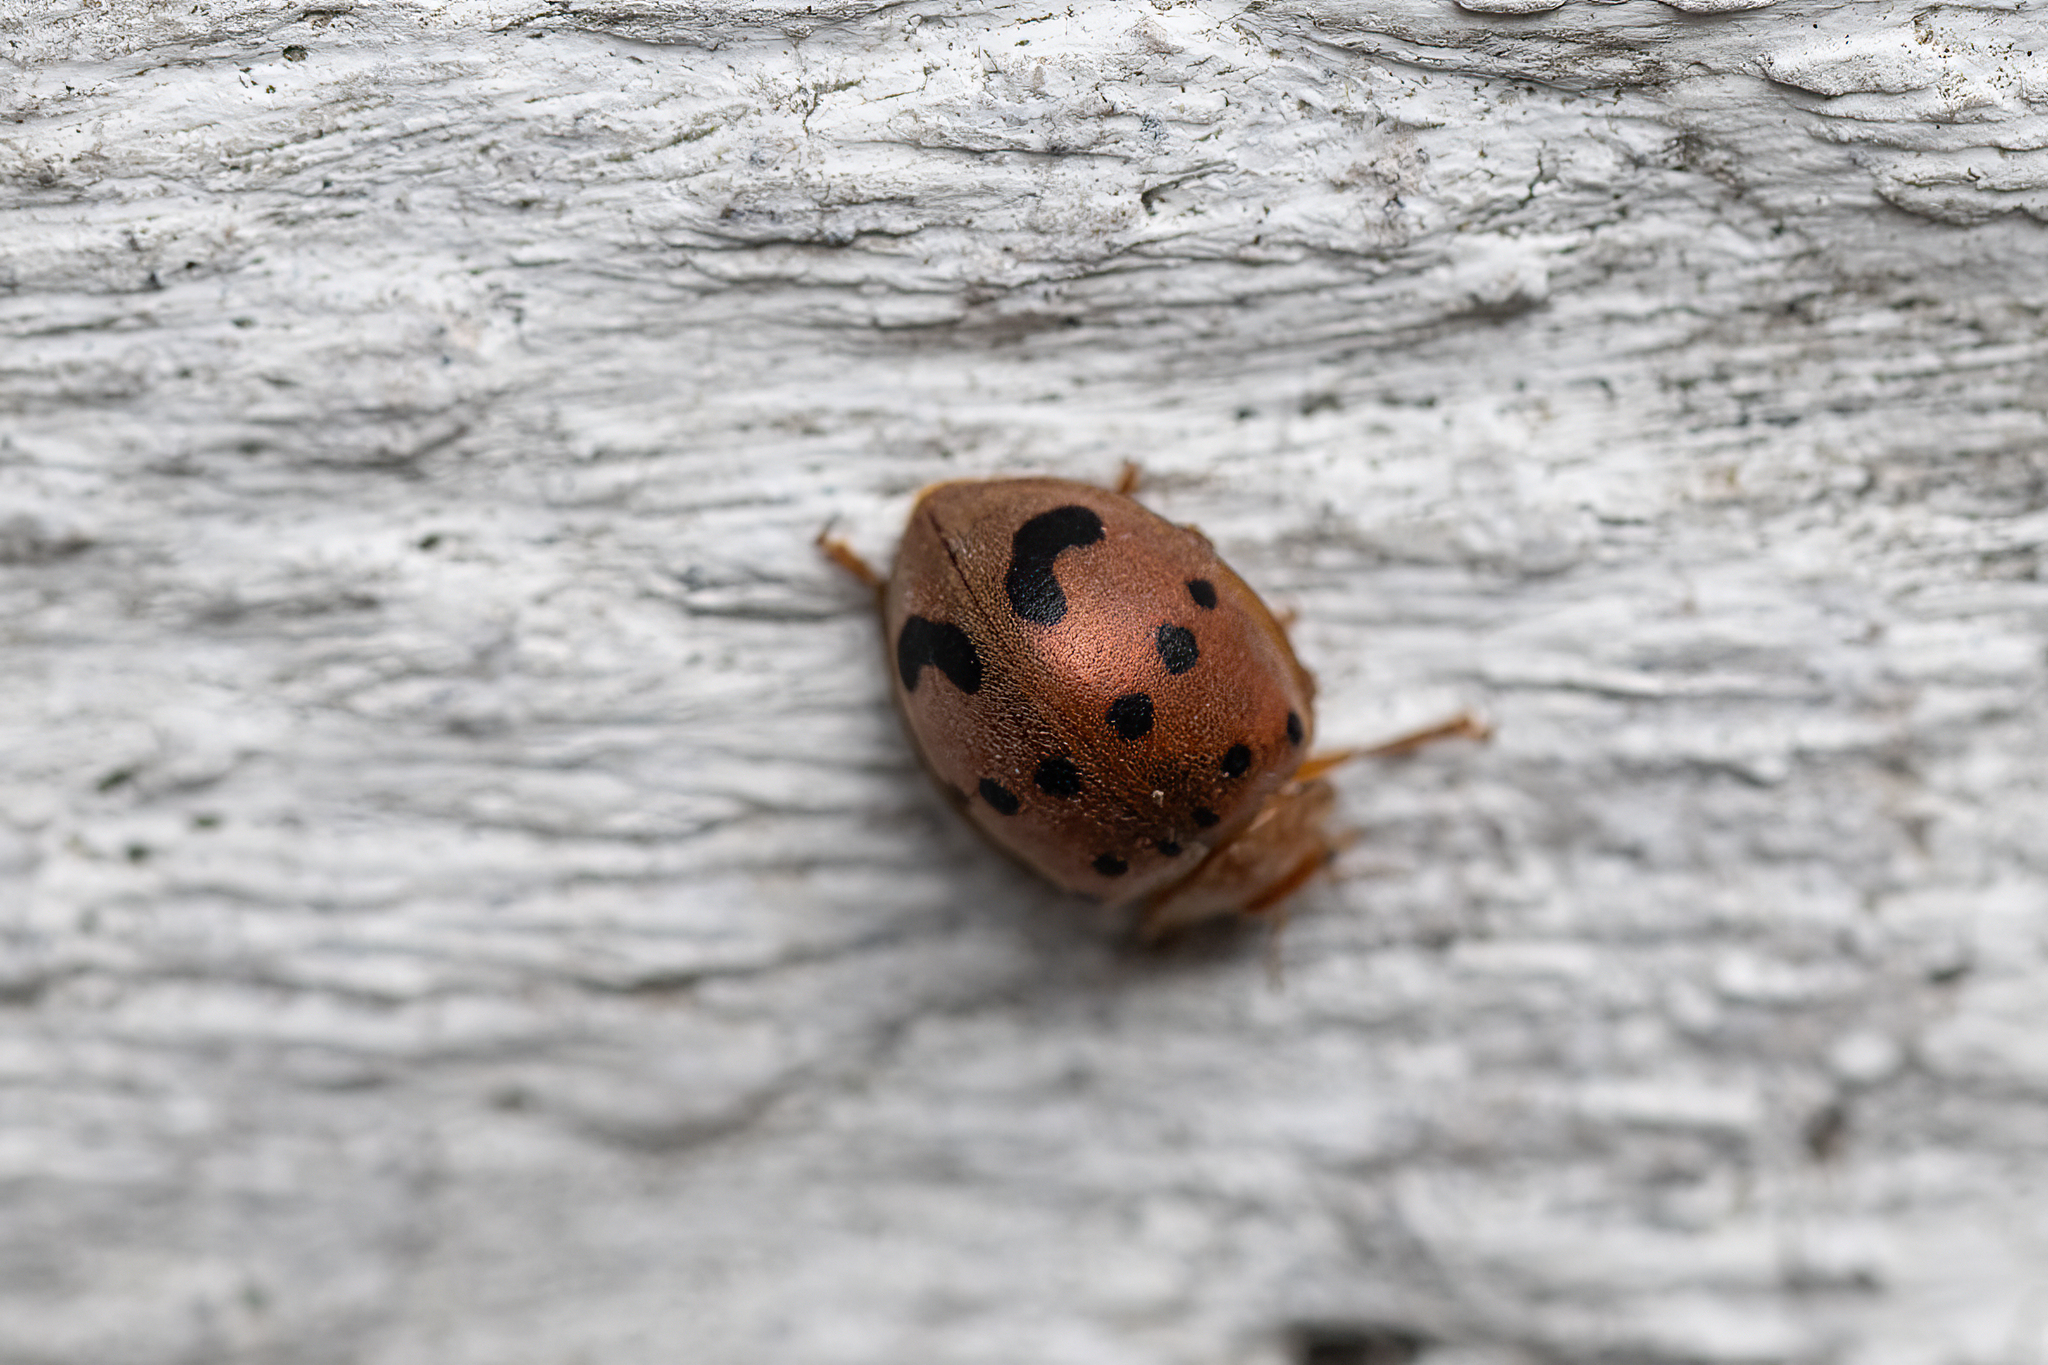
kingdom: Animalia
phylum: Arthropoda
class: Insecta
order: Coleoptera
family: Coccinellidae
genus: Epilachna
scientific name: Epilachna varivestis
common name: Ladybird beetle
